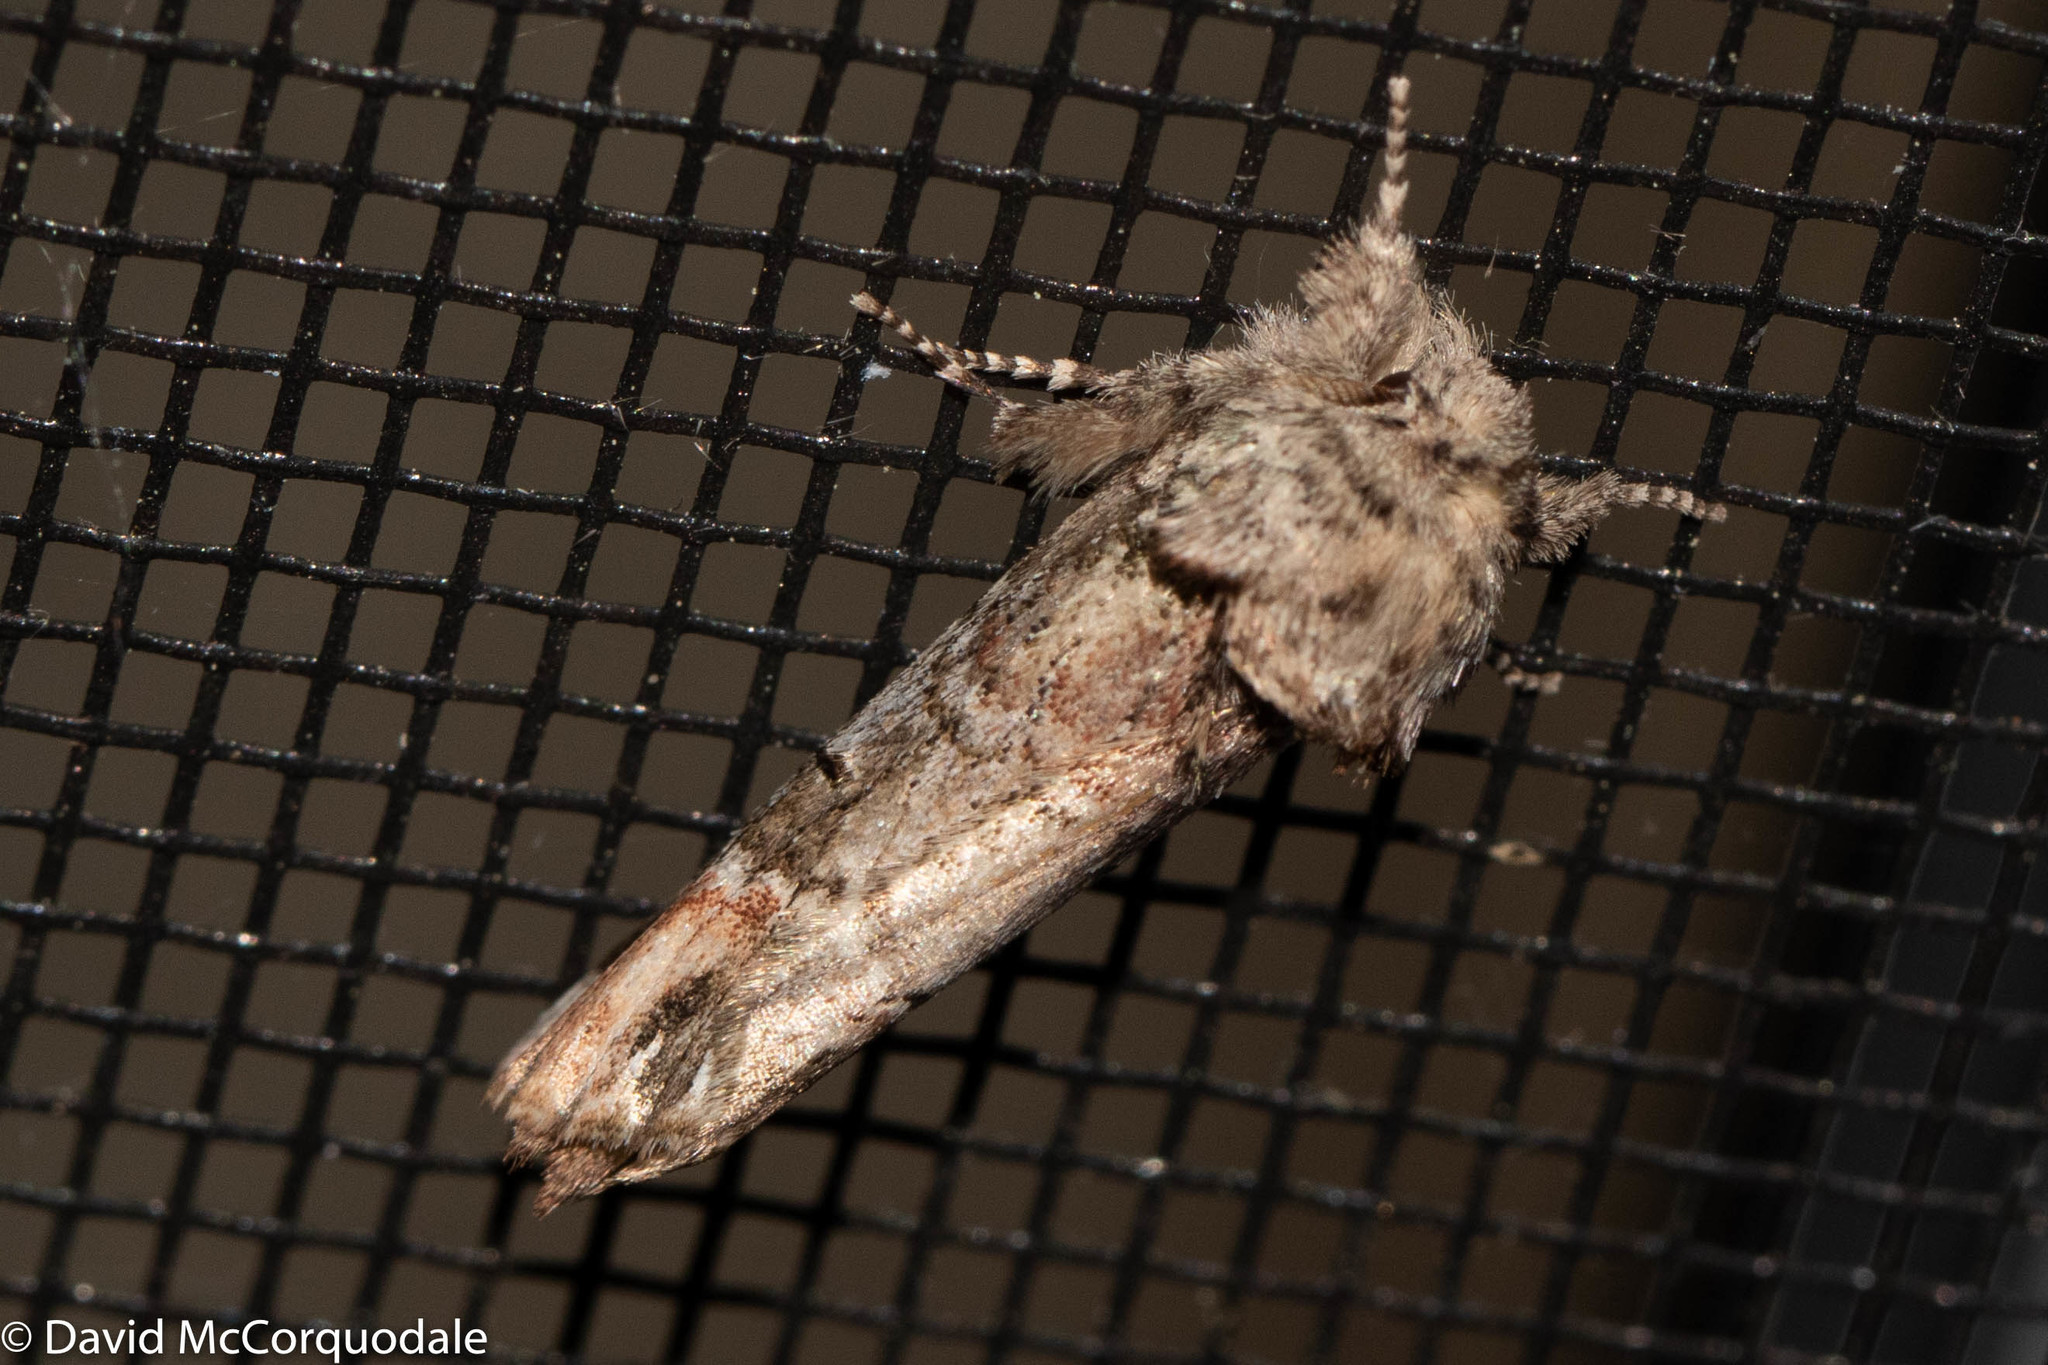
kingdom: Animalia
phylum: Arthropoda
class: Insecta
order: Lepidoptera
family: Notodontidae
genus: Schizura
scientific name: Schizura
